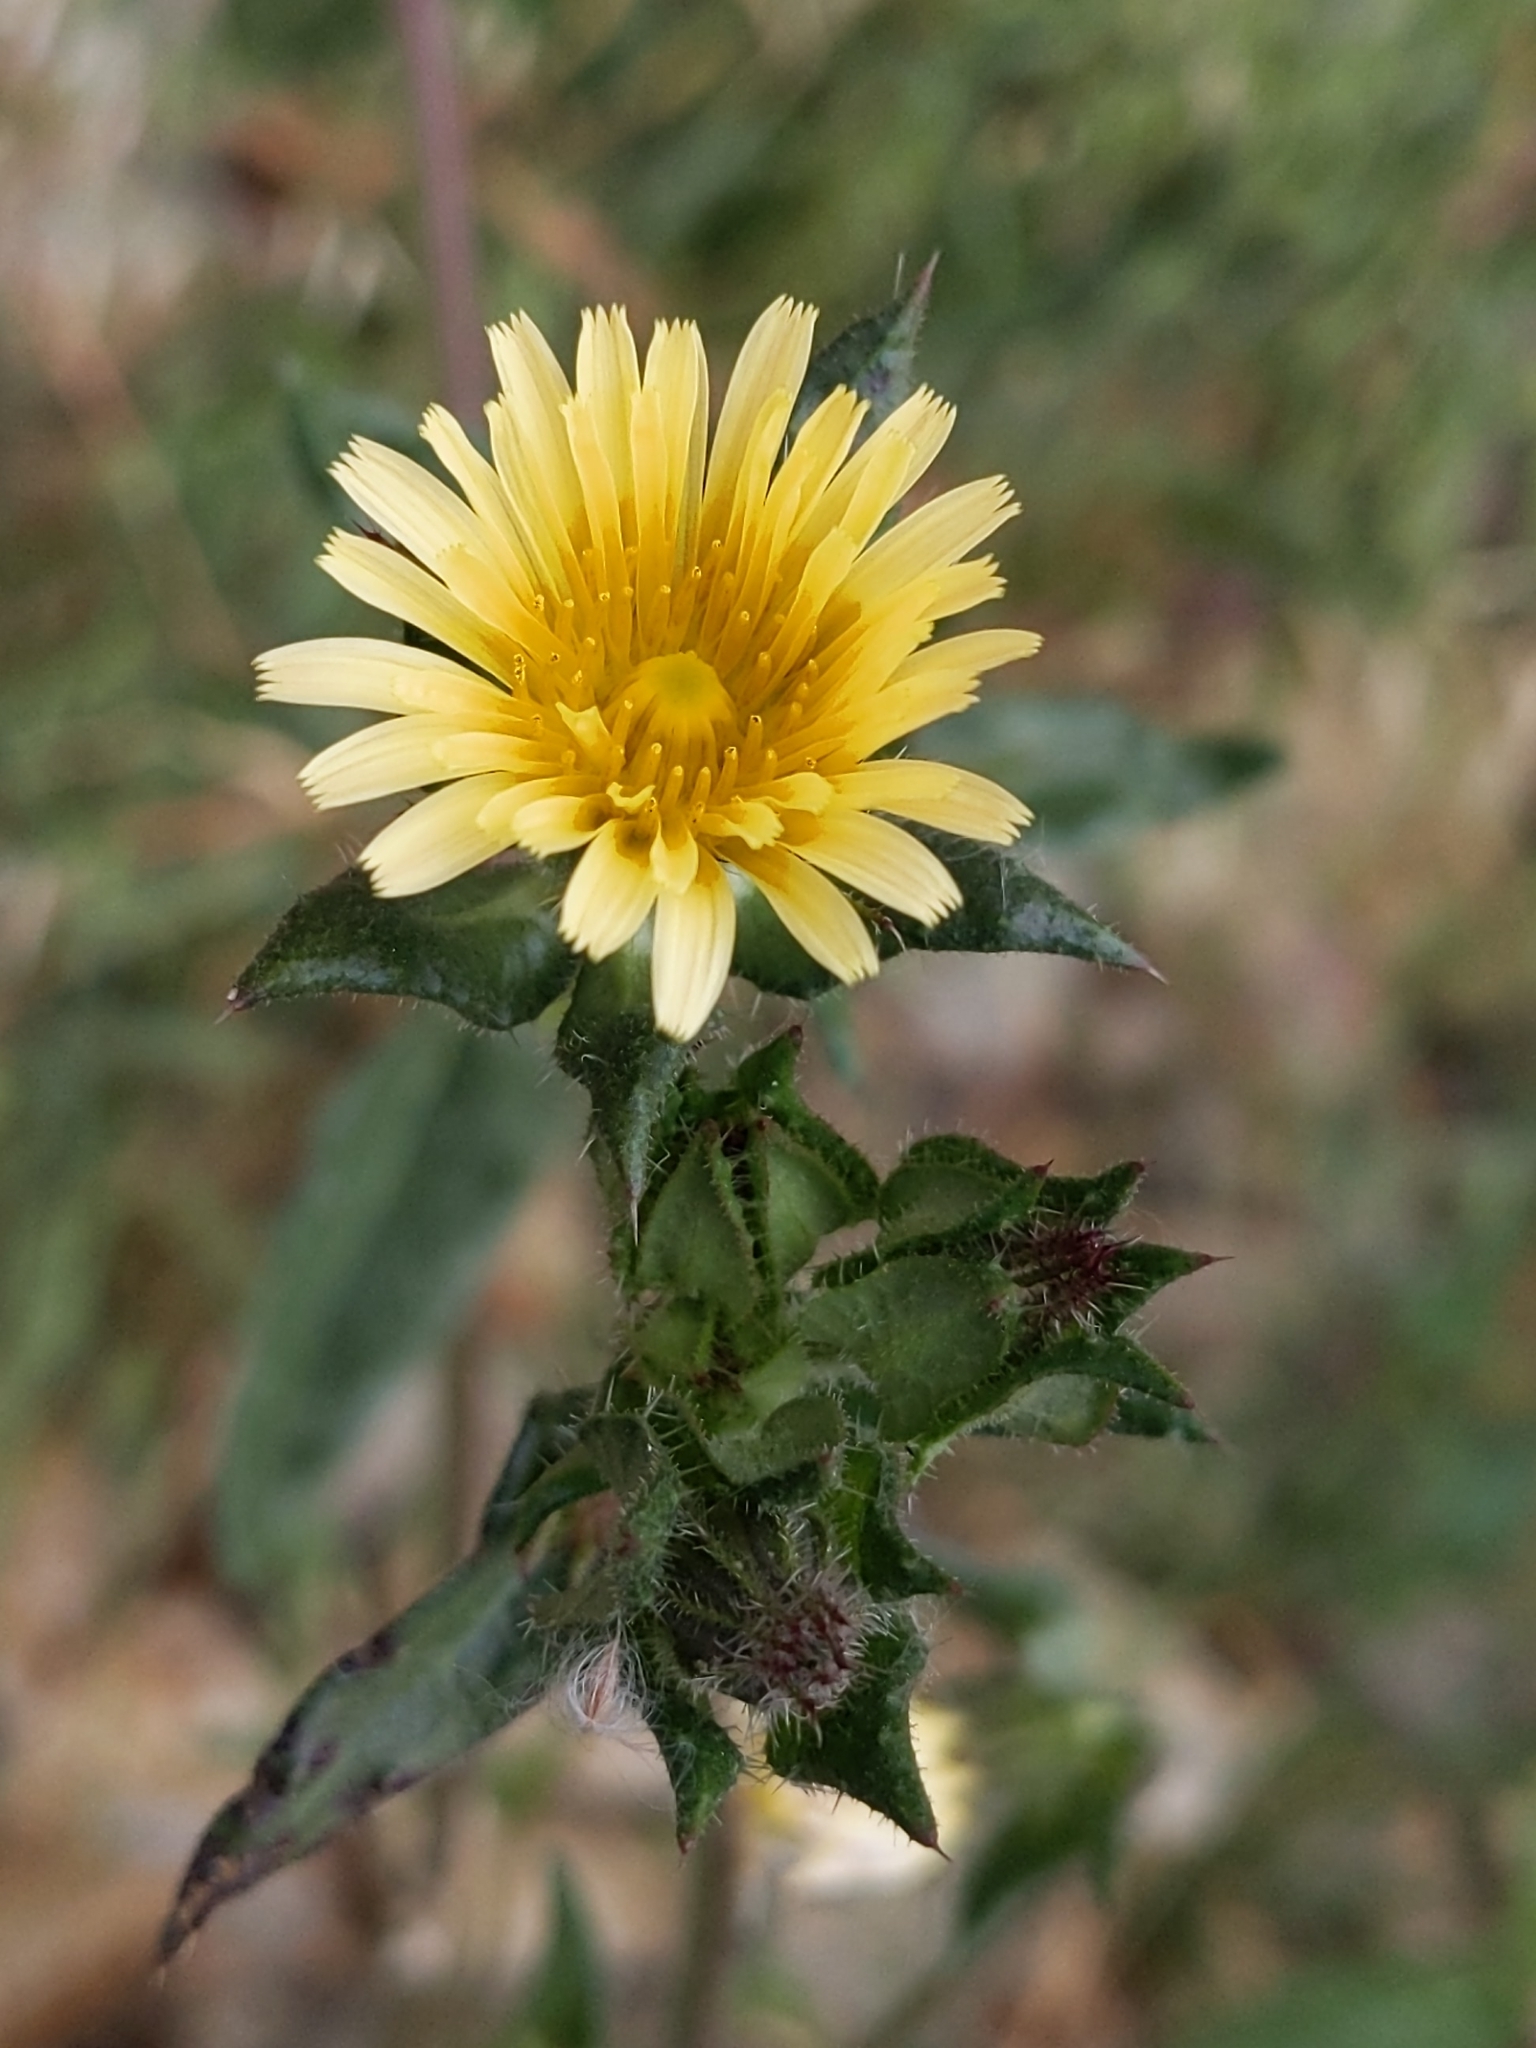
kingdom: Plantae
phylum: Tracheophyta
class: Magnoliopsida
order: Asterales
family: Asteraceae
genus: Helminthotheca
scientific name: Helminthotheca echioides
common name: Ox-tongue
